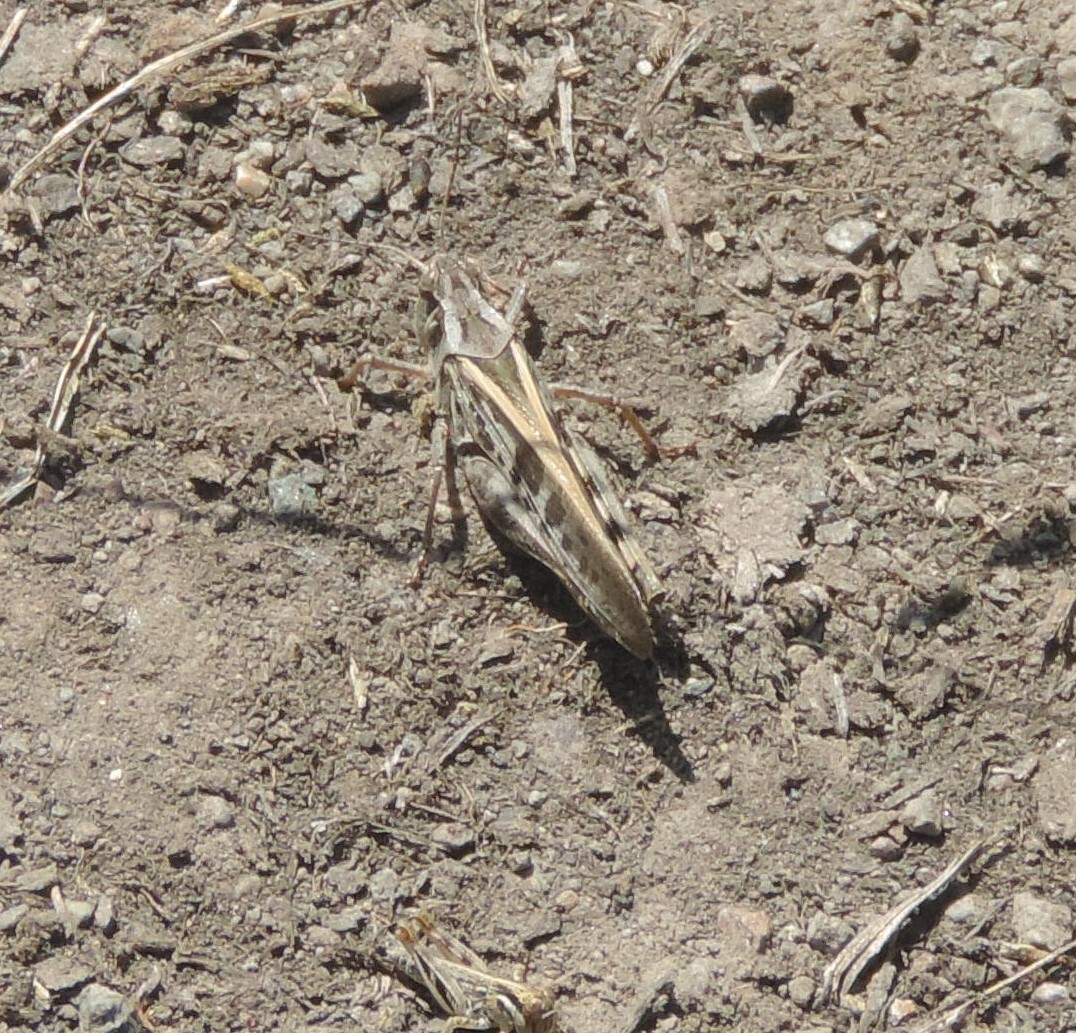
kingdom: Animalia
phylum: Arthropoda
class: Insecta
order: Orthoptera
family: Acrididae
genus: Camnula
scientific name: Camnula pellucida
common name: Clear-winged grasshopper
